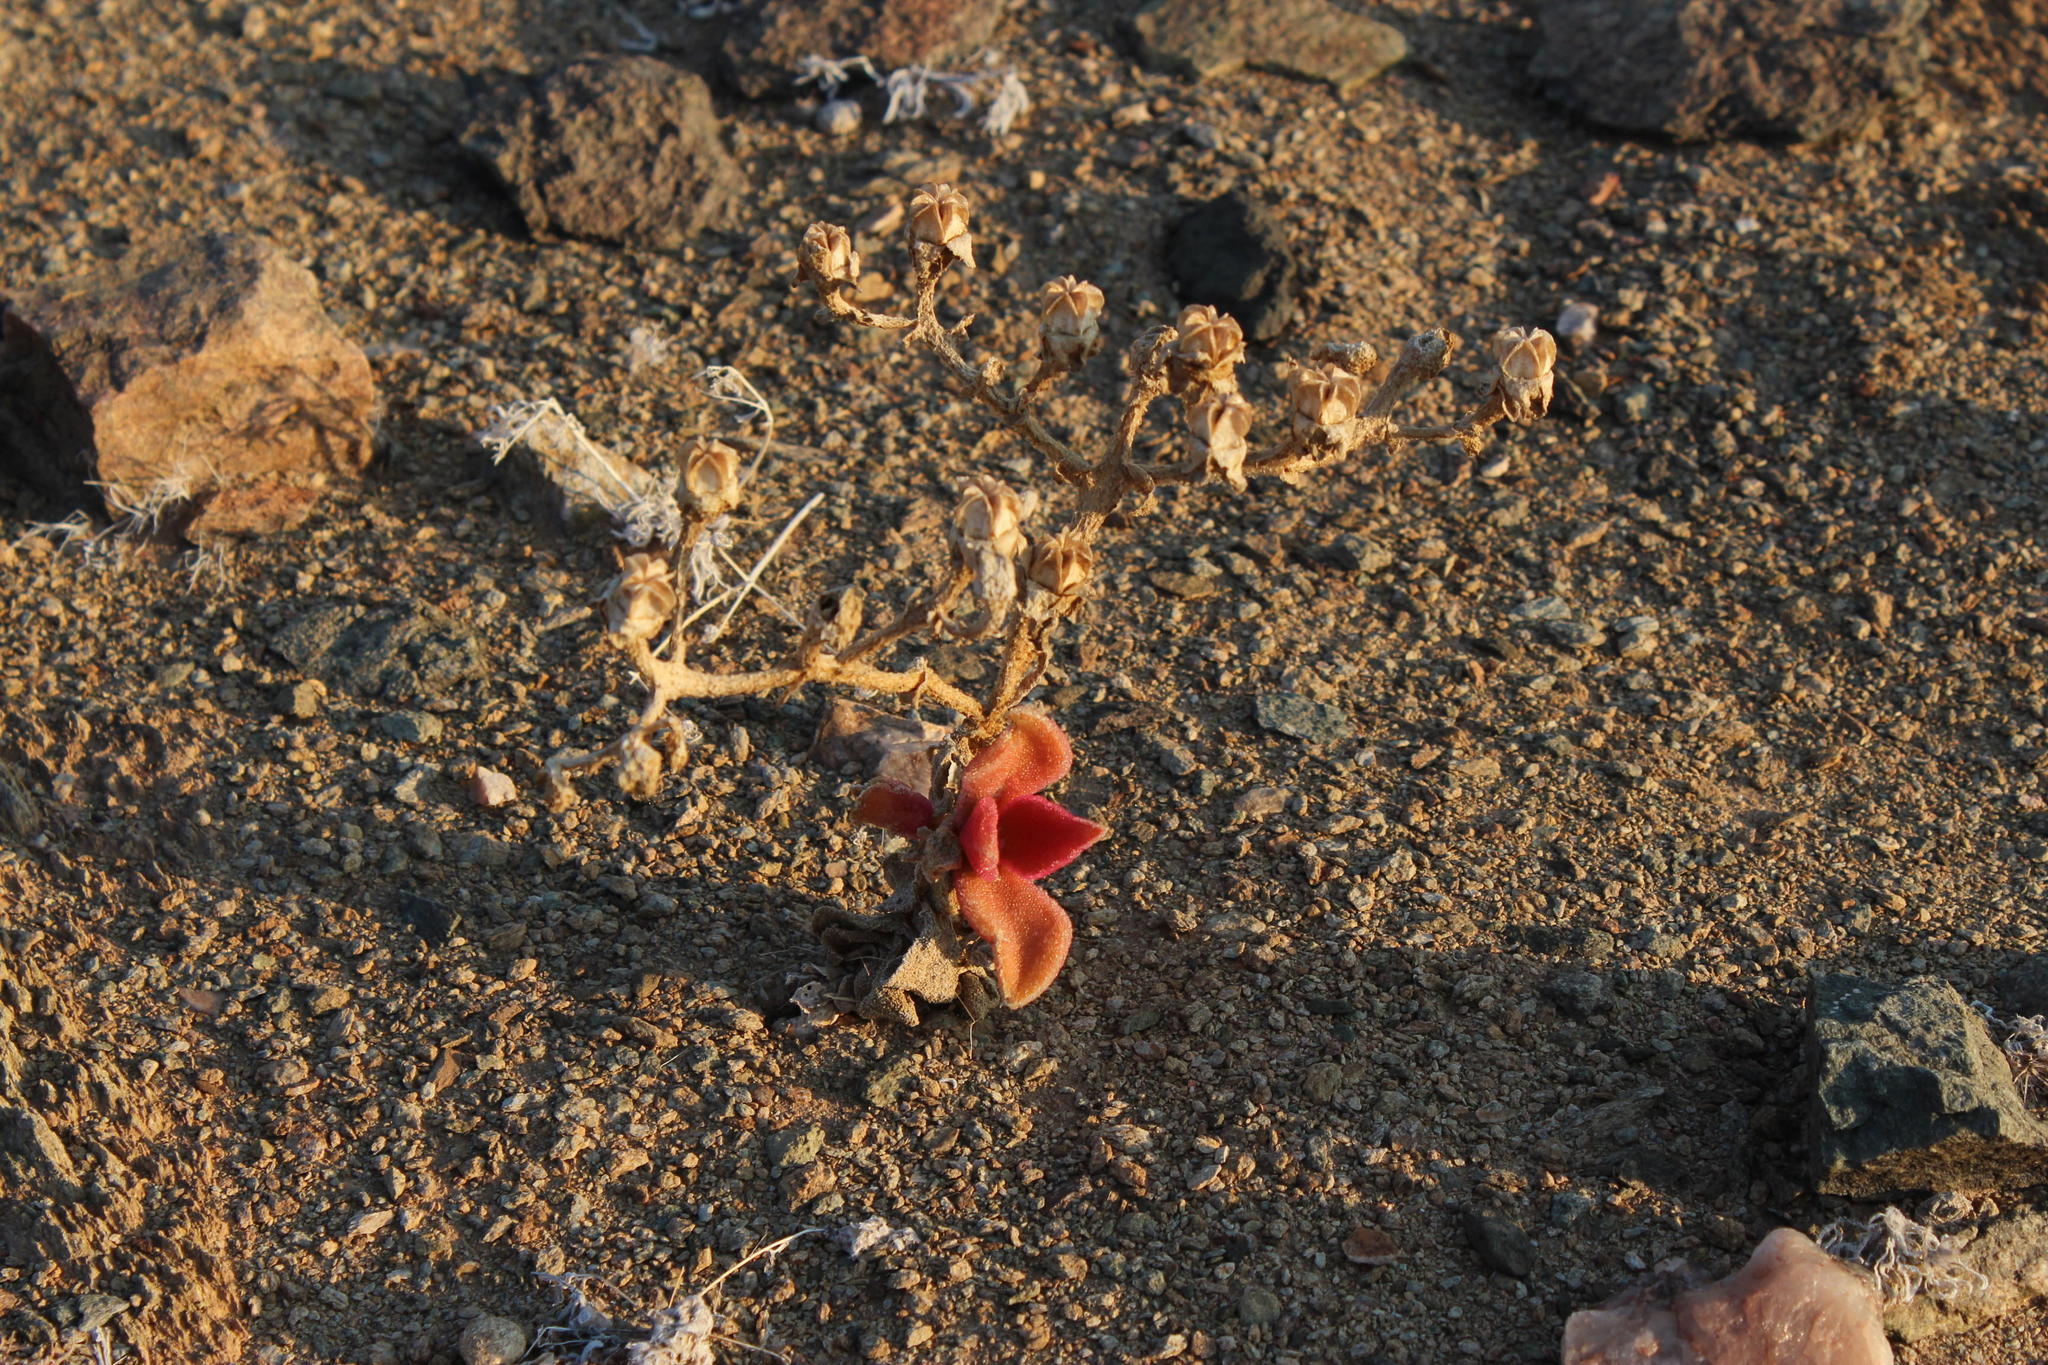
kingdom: Plantae
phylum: Tracheophyta
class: Magnoliopsida
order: Caryophyllales
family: Aizoaceae
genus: Mesembryanthemum
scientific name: Mesembryanthemum barklyi
